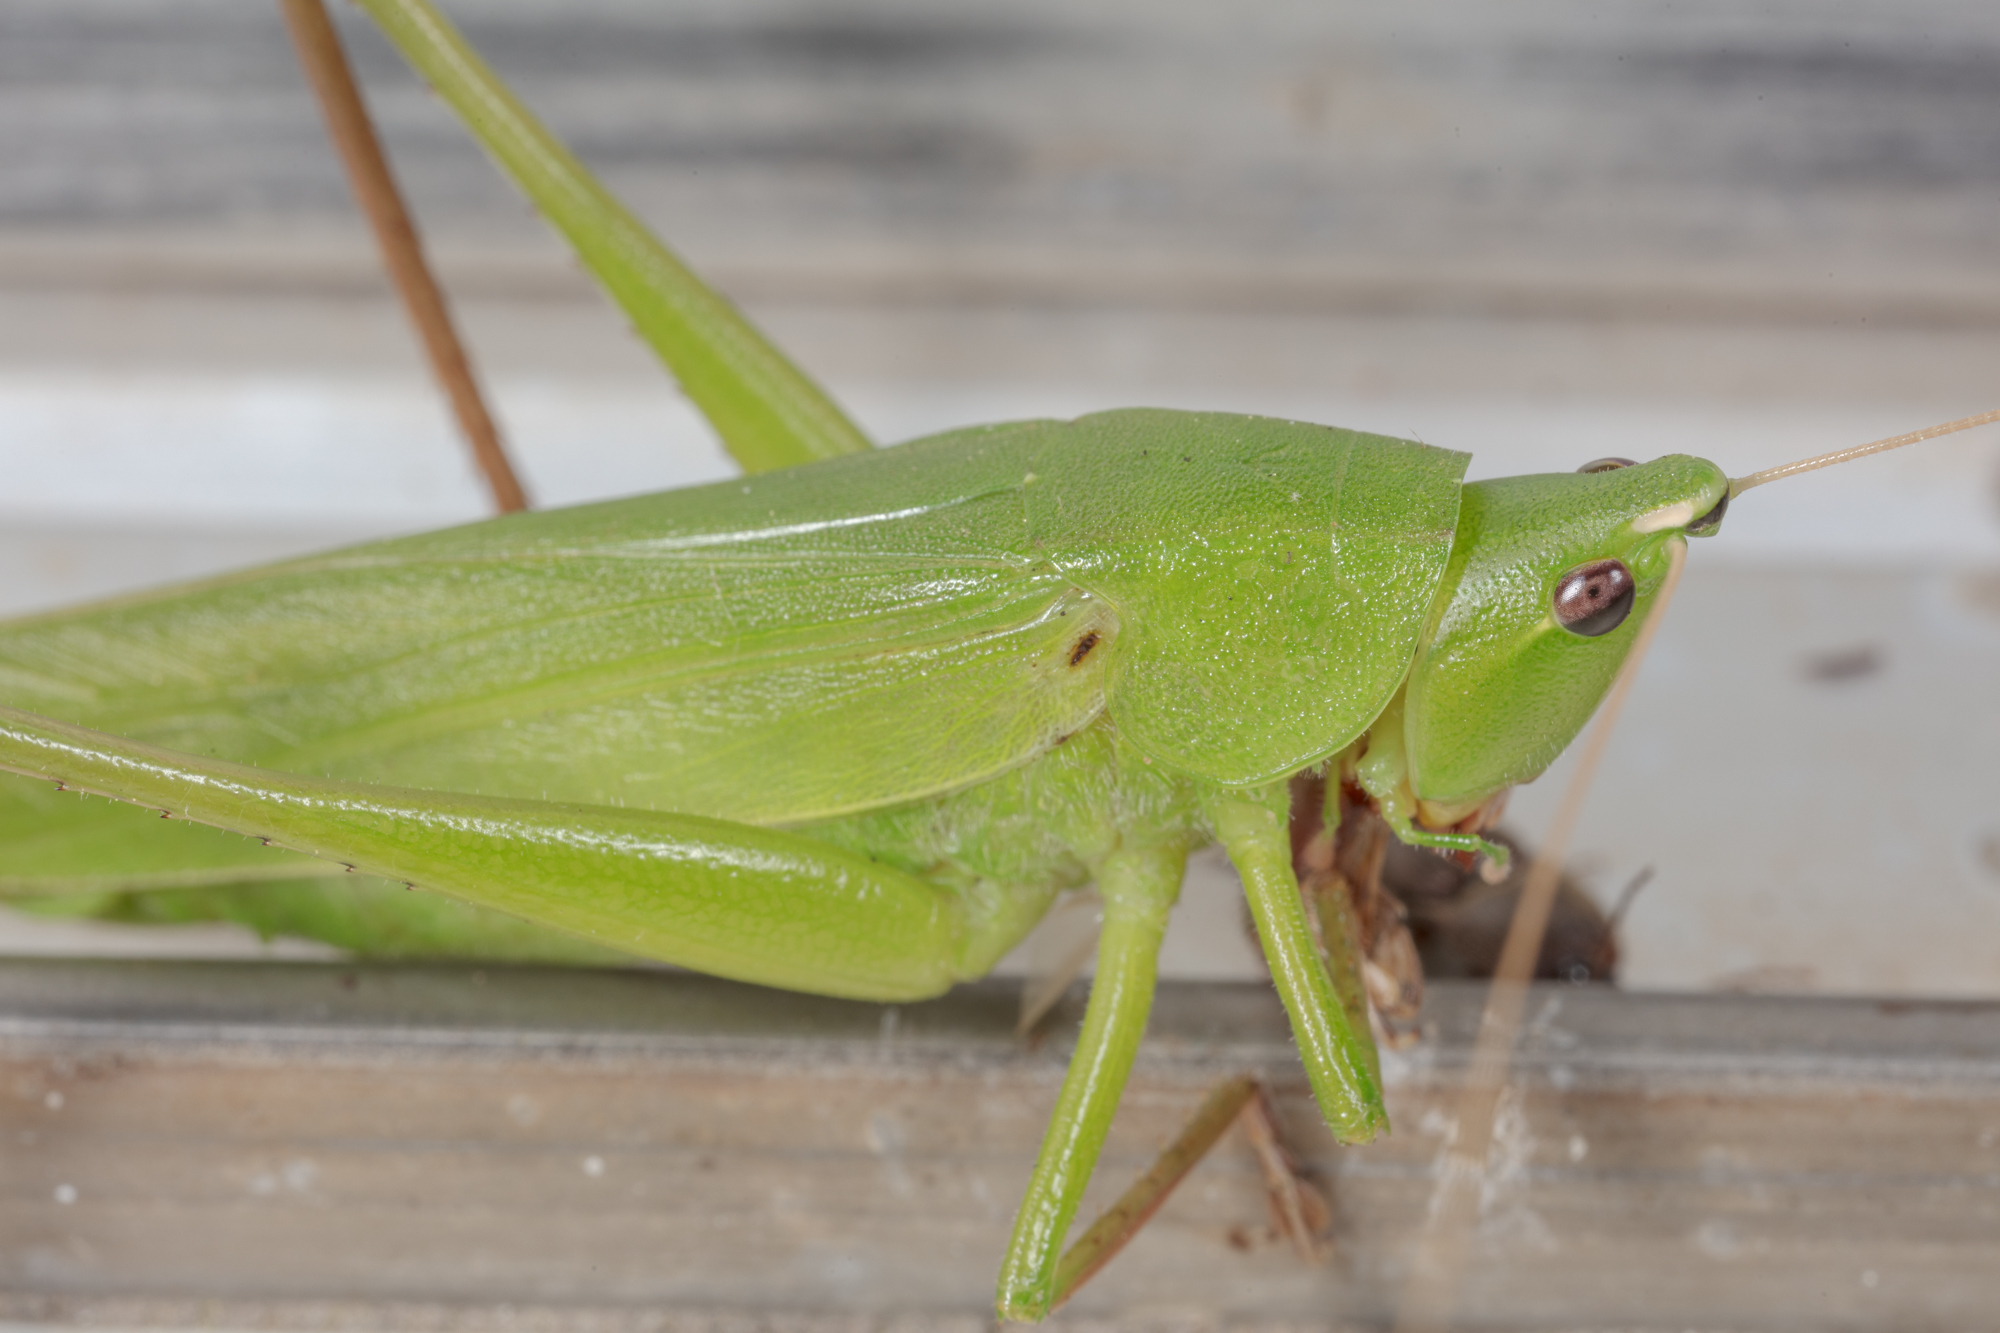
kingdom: Animalia
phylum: Arthropoda
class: Insecta
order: Orthoptera
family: Tettigoniidae
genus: Neoconocephalus
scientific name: Neoconocephalus triops
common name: Broad-tipped conehead
